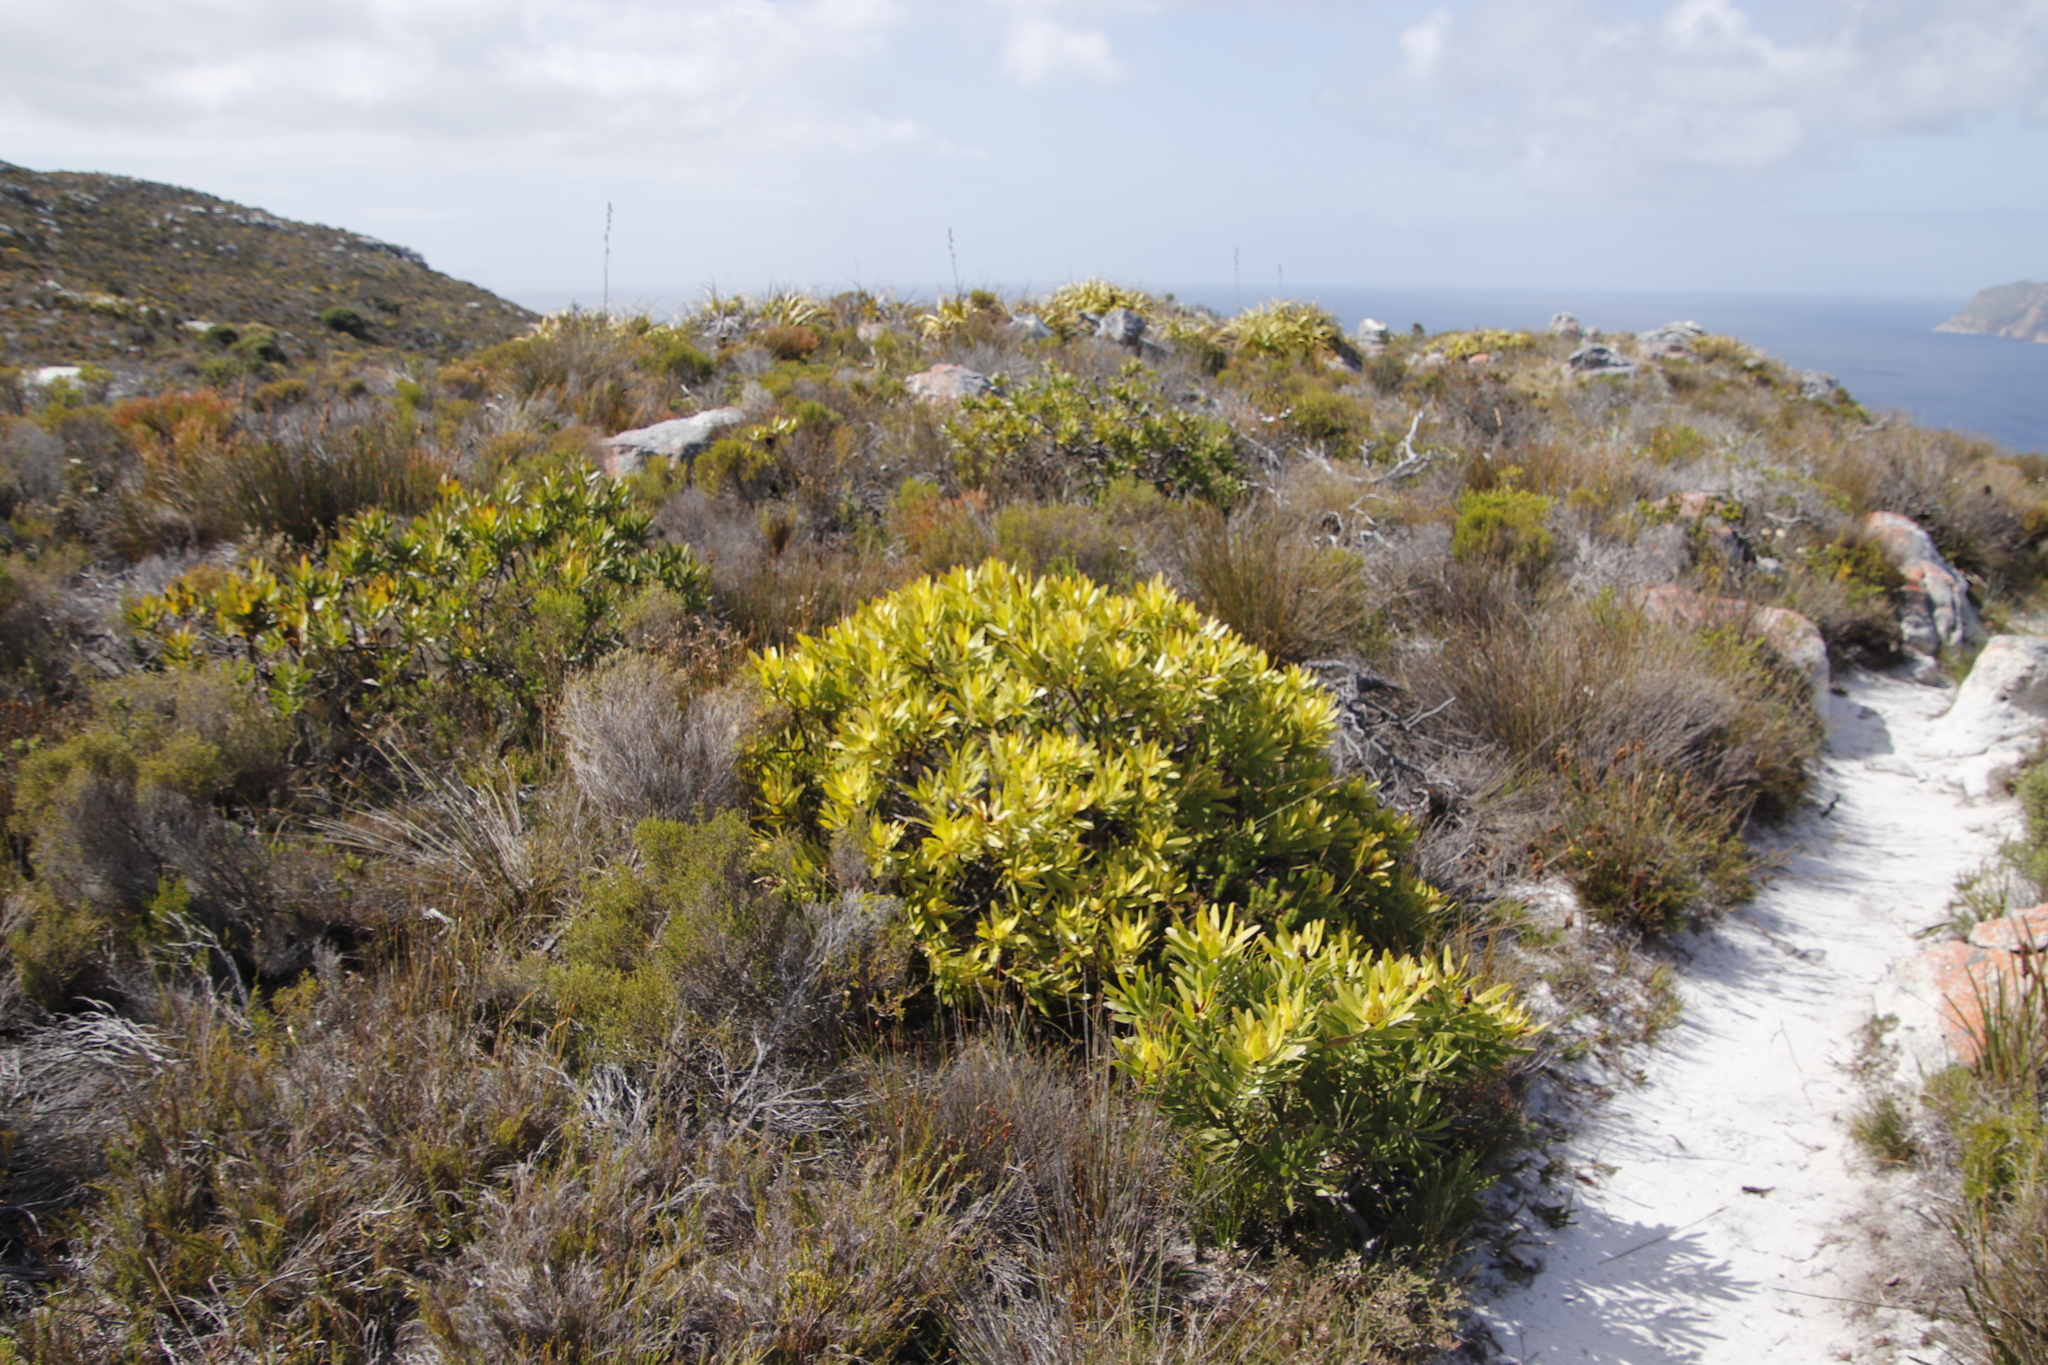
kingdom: Plantae
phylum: Tracheophyta
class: Magnoliopsida
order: Proteales
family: Proteaceae
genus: Leucadendron
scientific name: Leucadendron laureolum
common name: Golden sunshinebush
